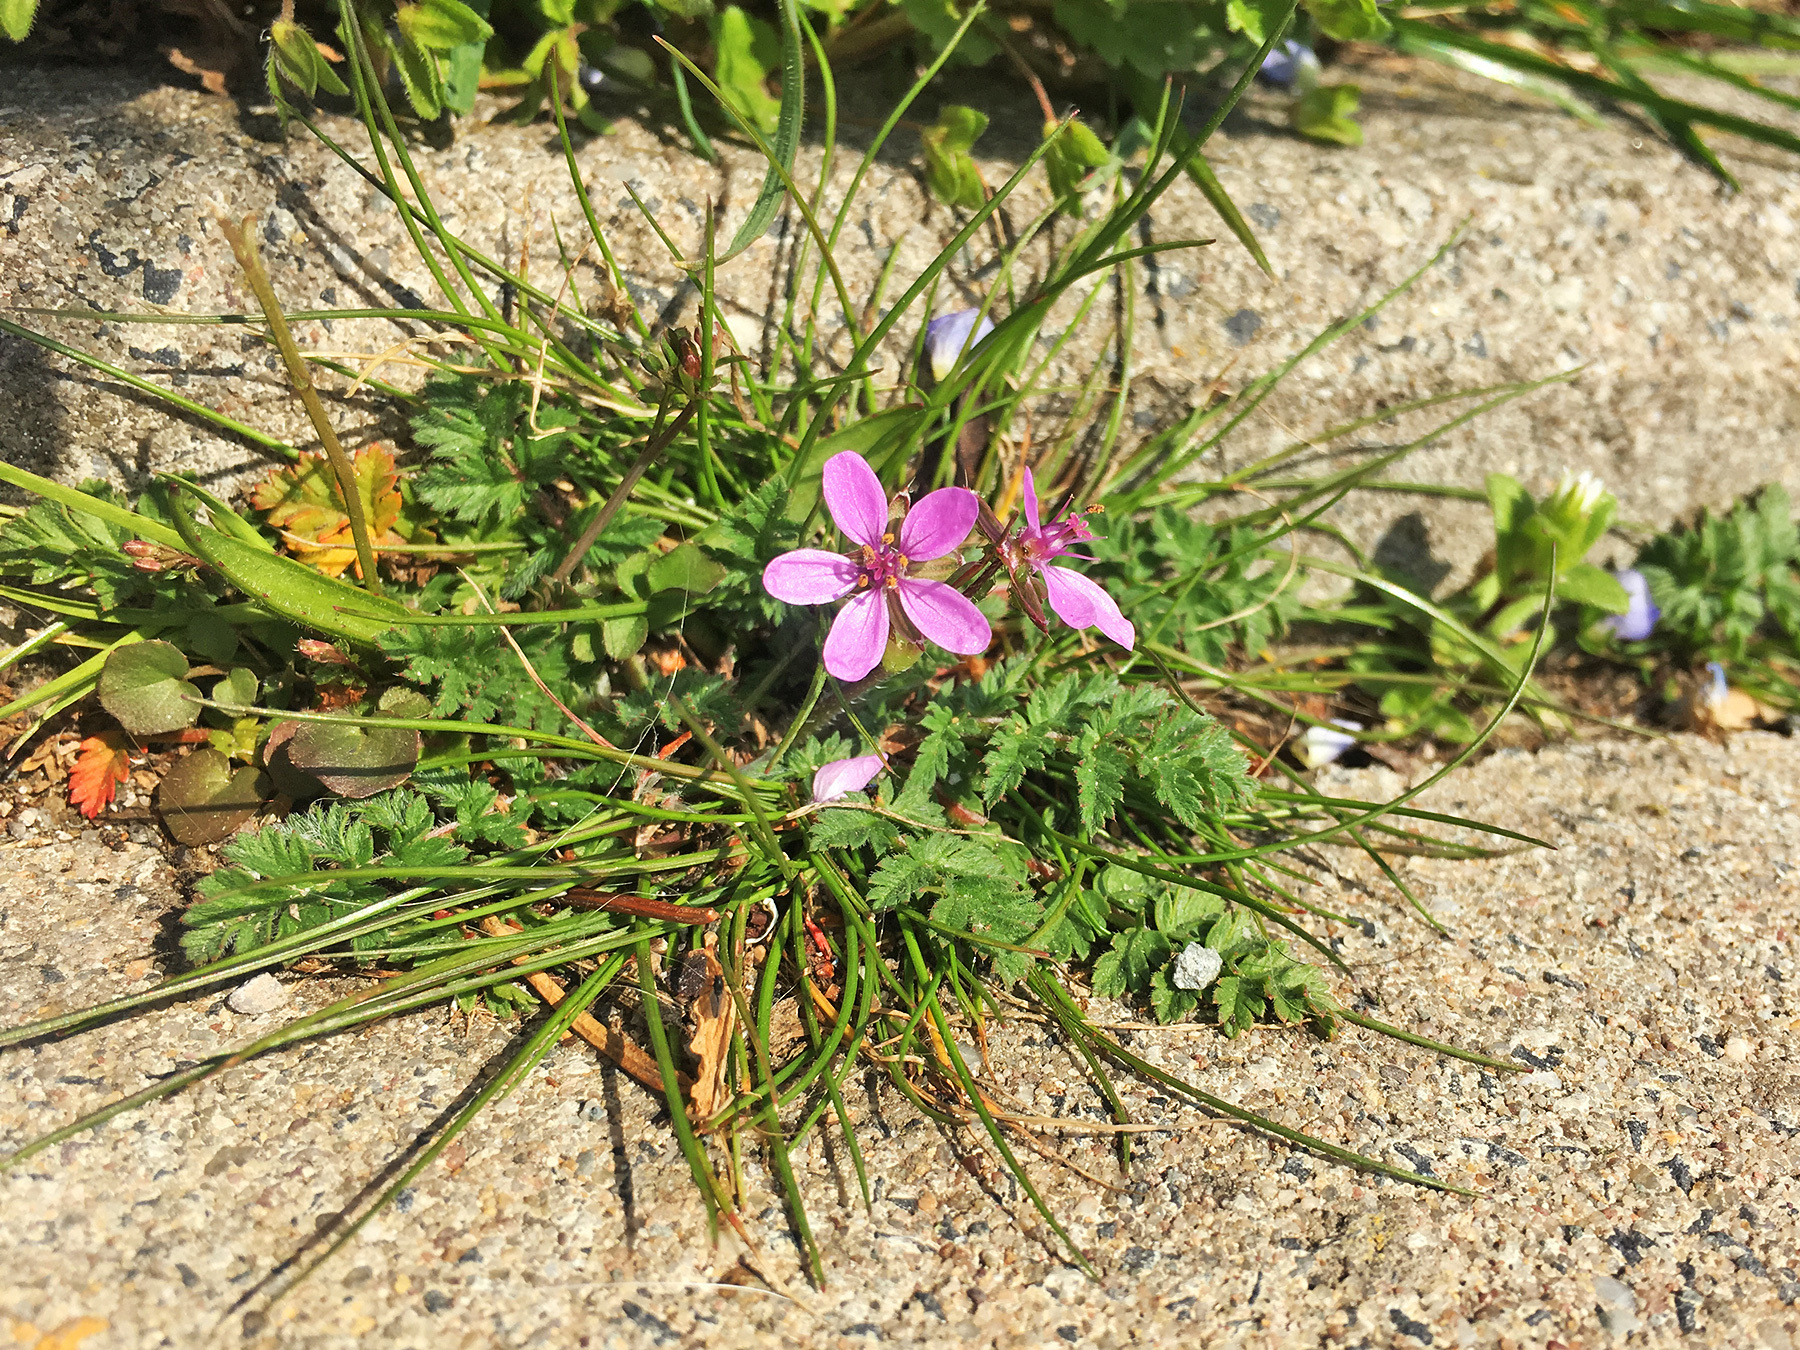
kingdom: Plantae
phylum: Tracheophyta
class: Magnoliopsida
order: Geraniales
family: Geraniaceae
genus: Erodium
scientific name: Erodium cicutarium
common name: Common stork's-bill
